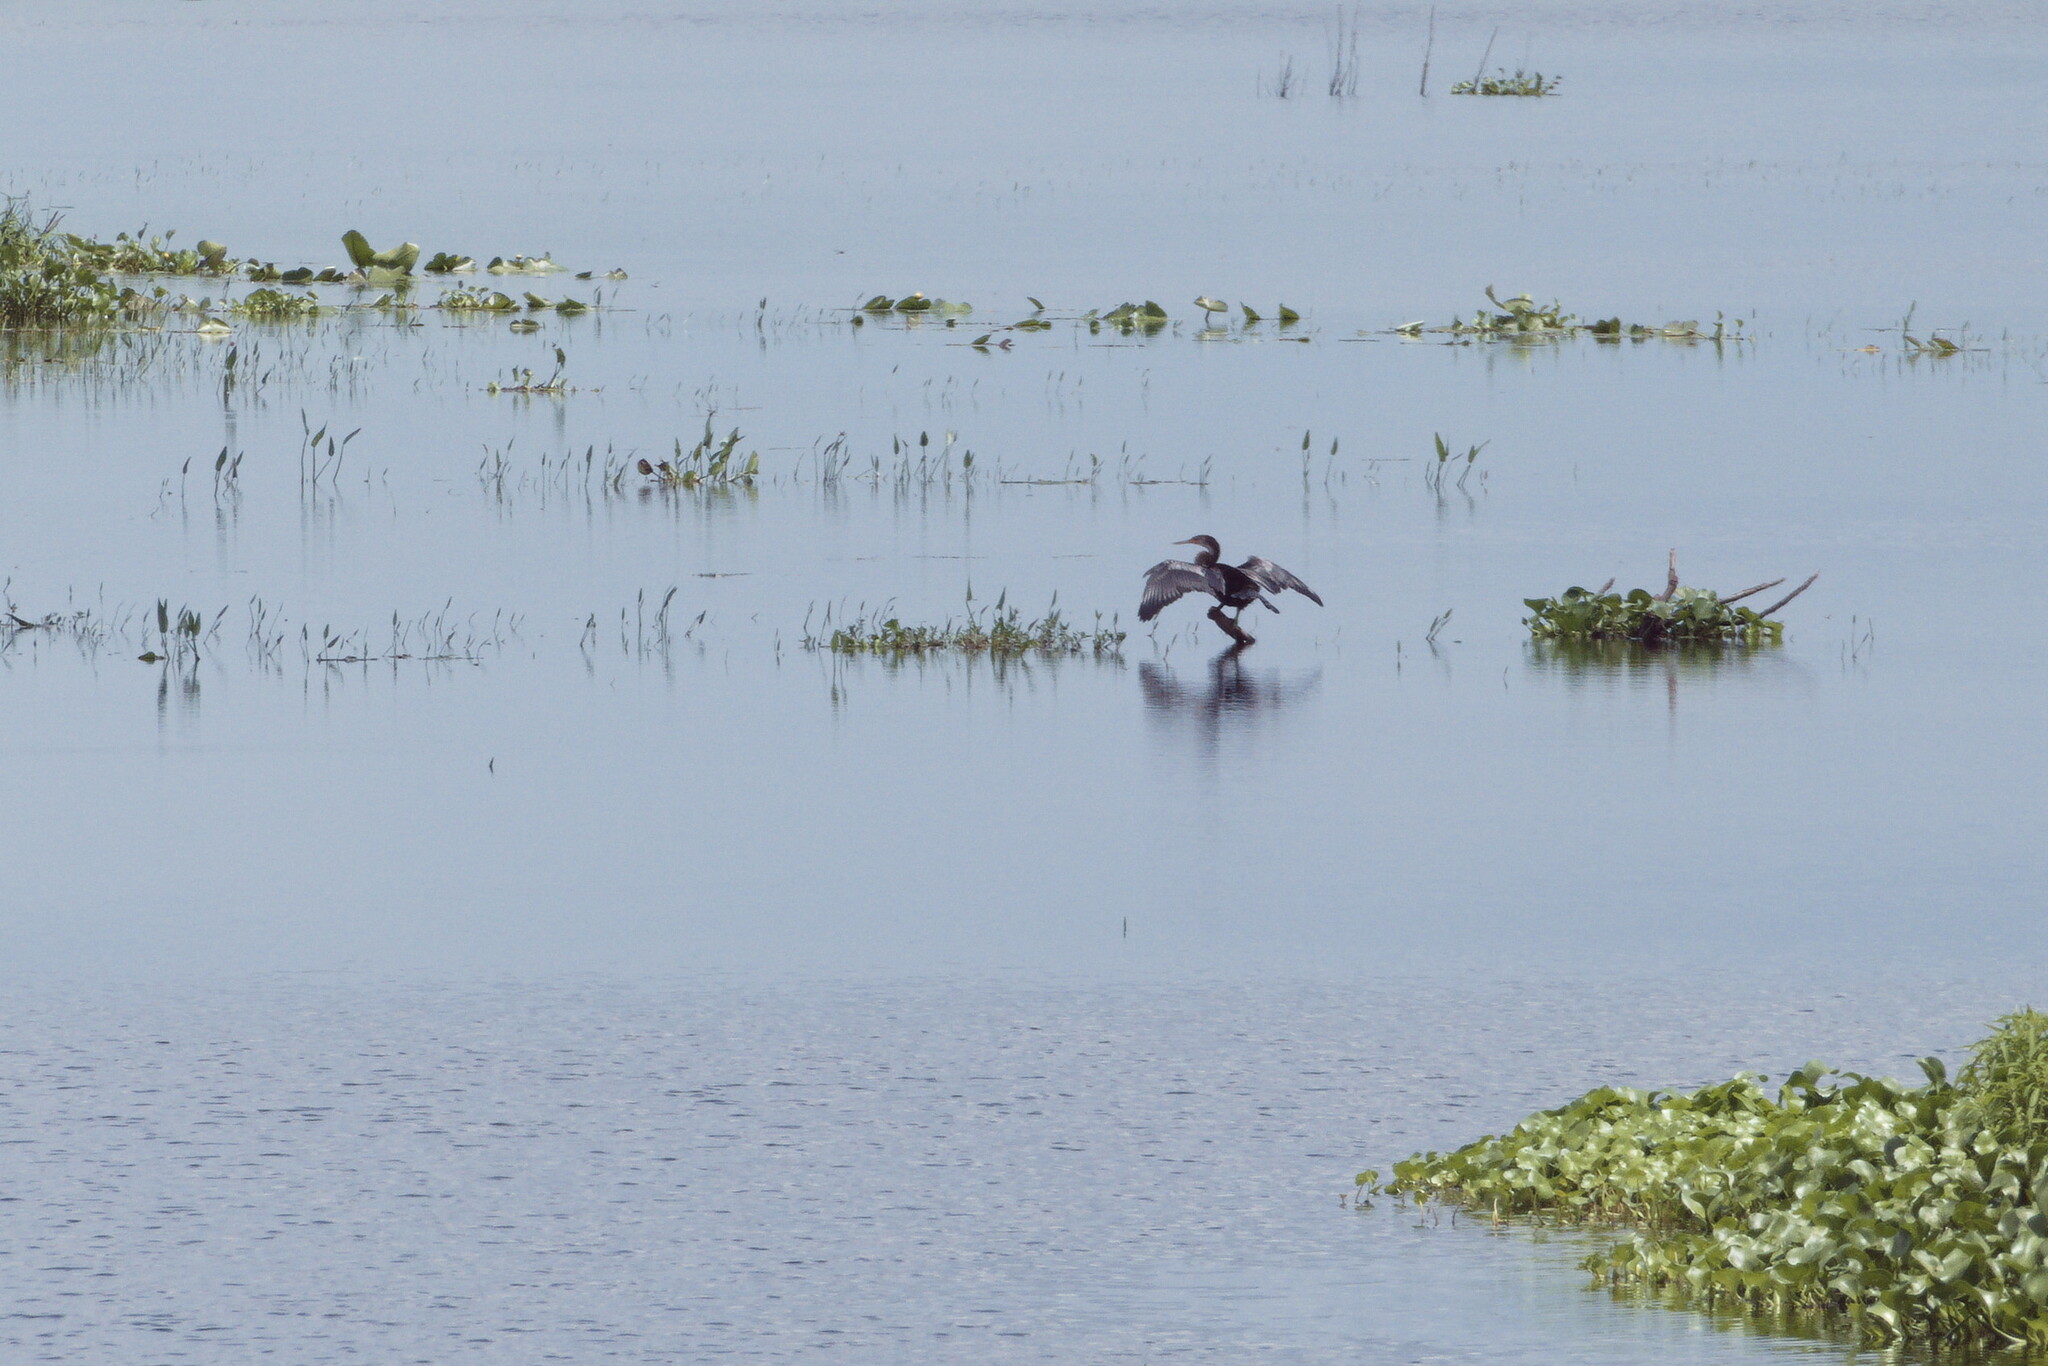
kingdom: Animalia
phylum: Chordata
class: Aves
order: Suliformes
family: Anhingidae
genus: Anhinga
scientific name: Anhinga anhinga
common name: Anhinga
